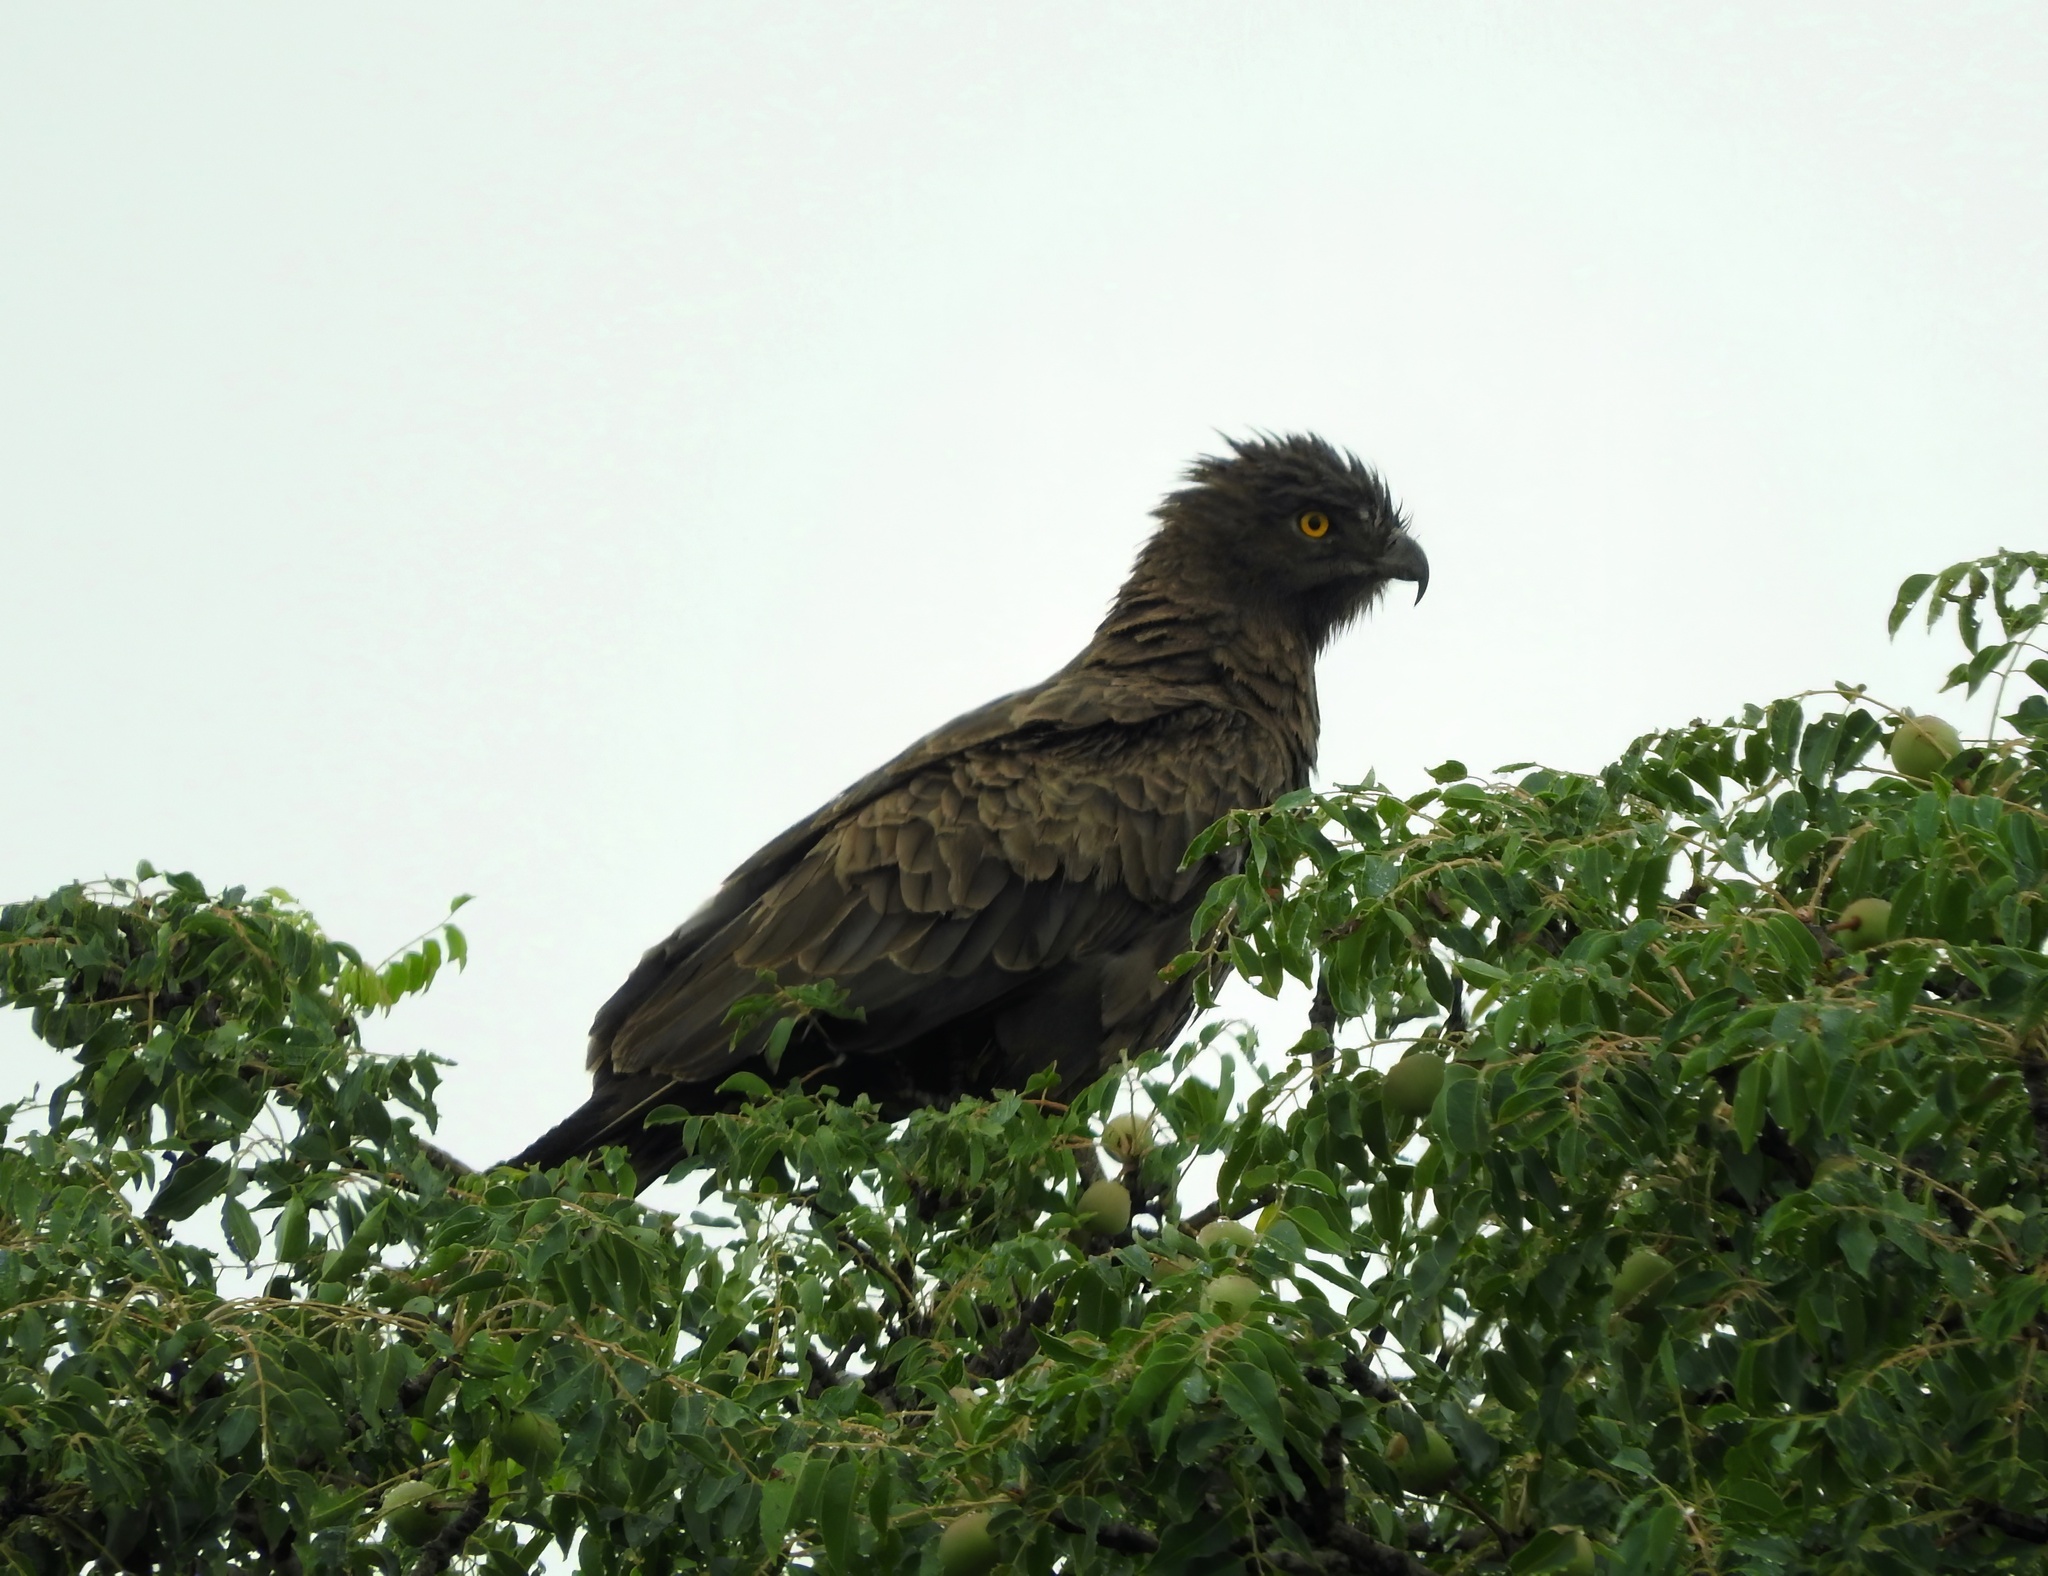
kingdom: Animalia
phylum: Chordata
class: Aves
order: Accipitriformes
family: Accipitridae
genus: Circaetus
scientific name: Circaetus cinereus
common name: Brown snake eagle
